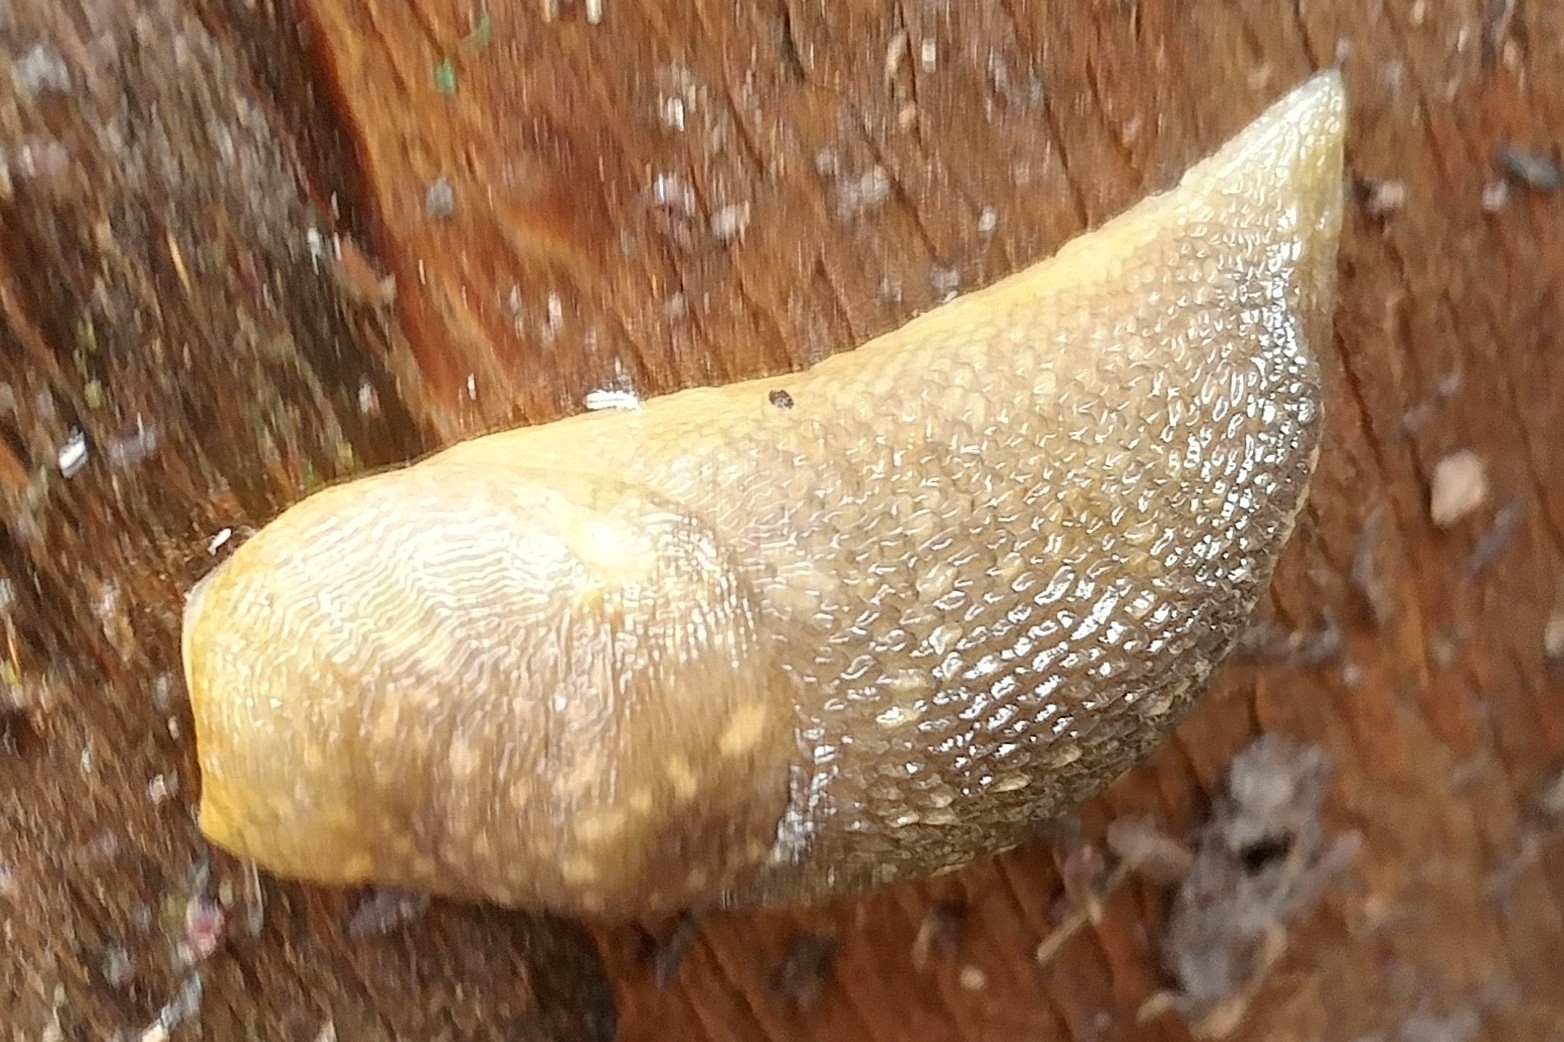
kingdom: Animalia
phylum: Mollusca
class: Gastropoda
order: Stylommatophora
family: Limacidae
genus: Limacus
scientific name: Limacus flavus
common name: Yellow gardenslug
